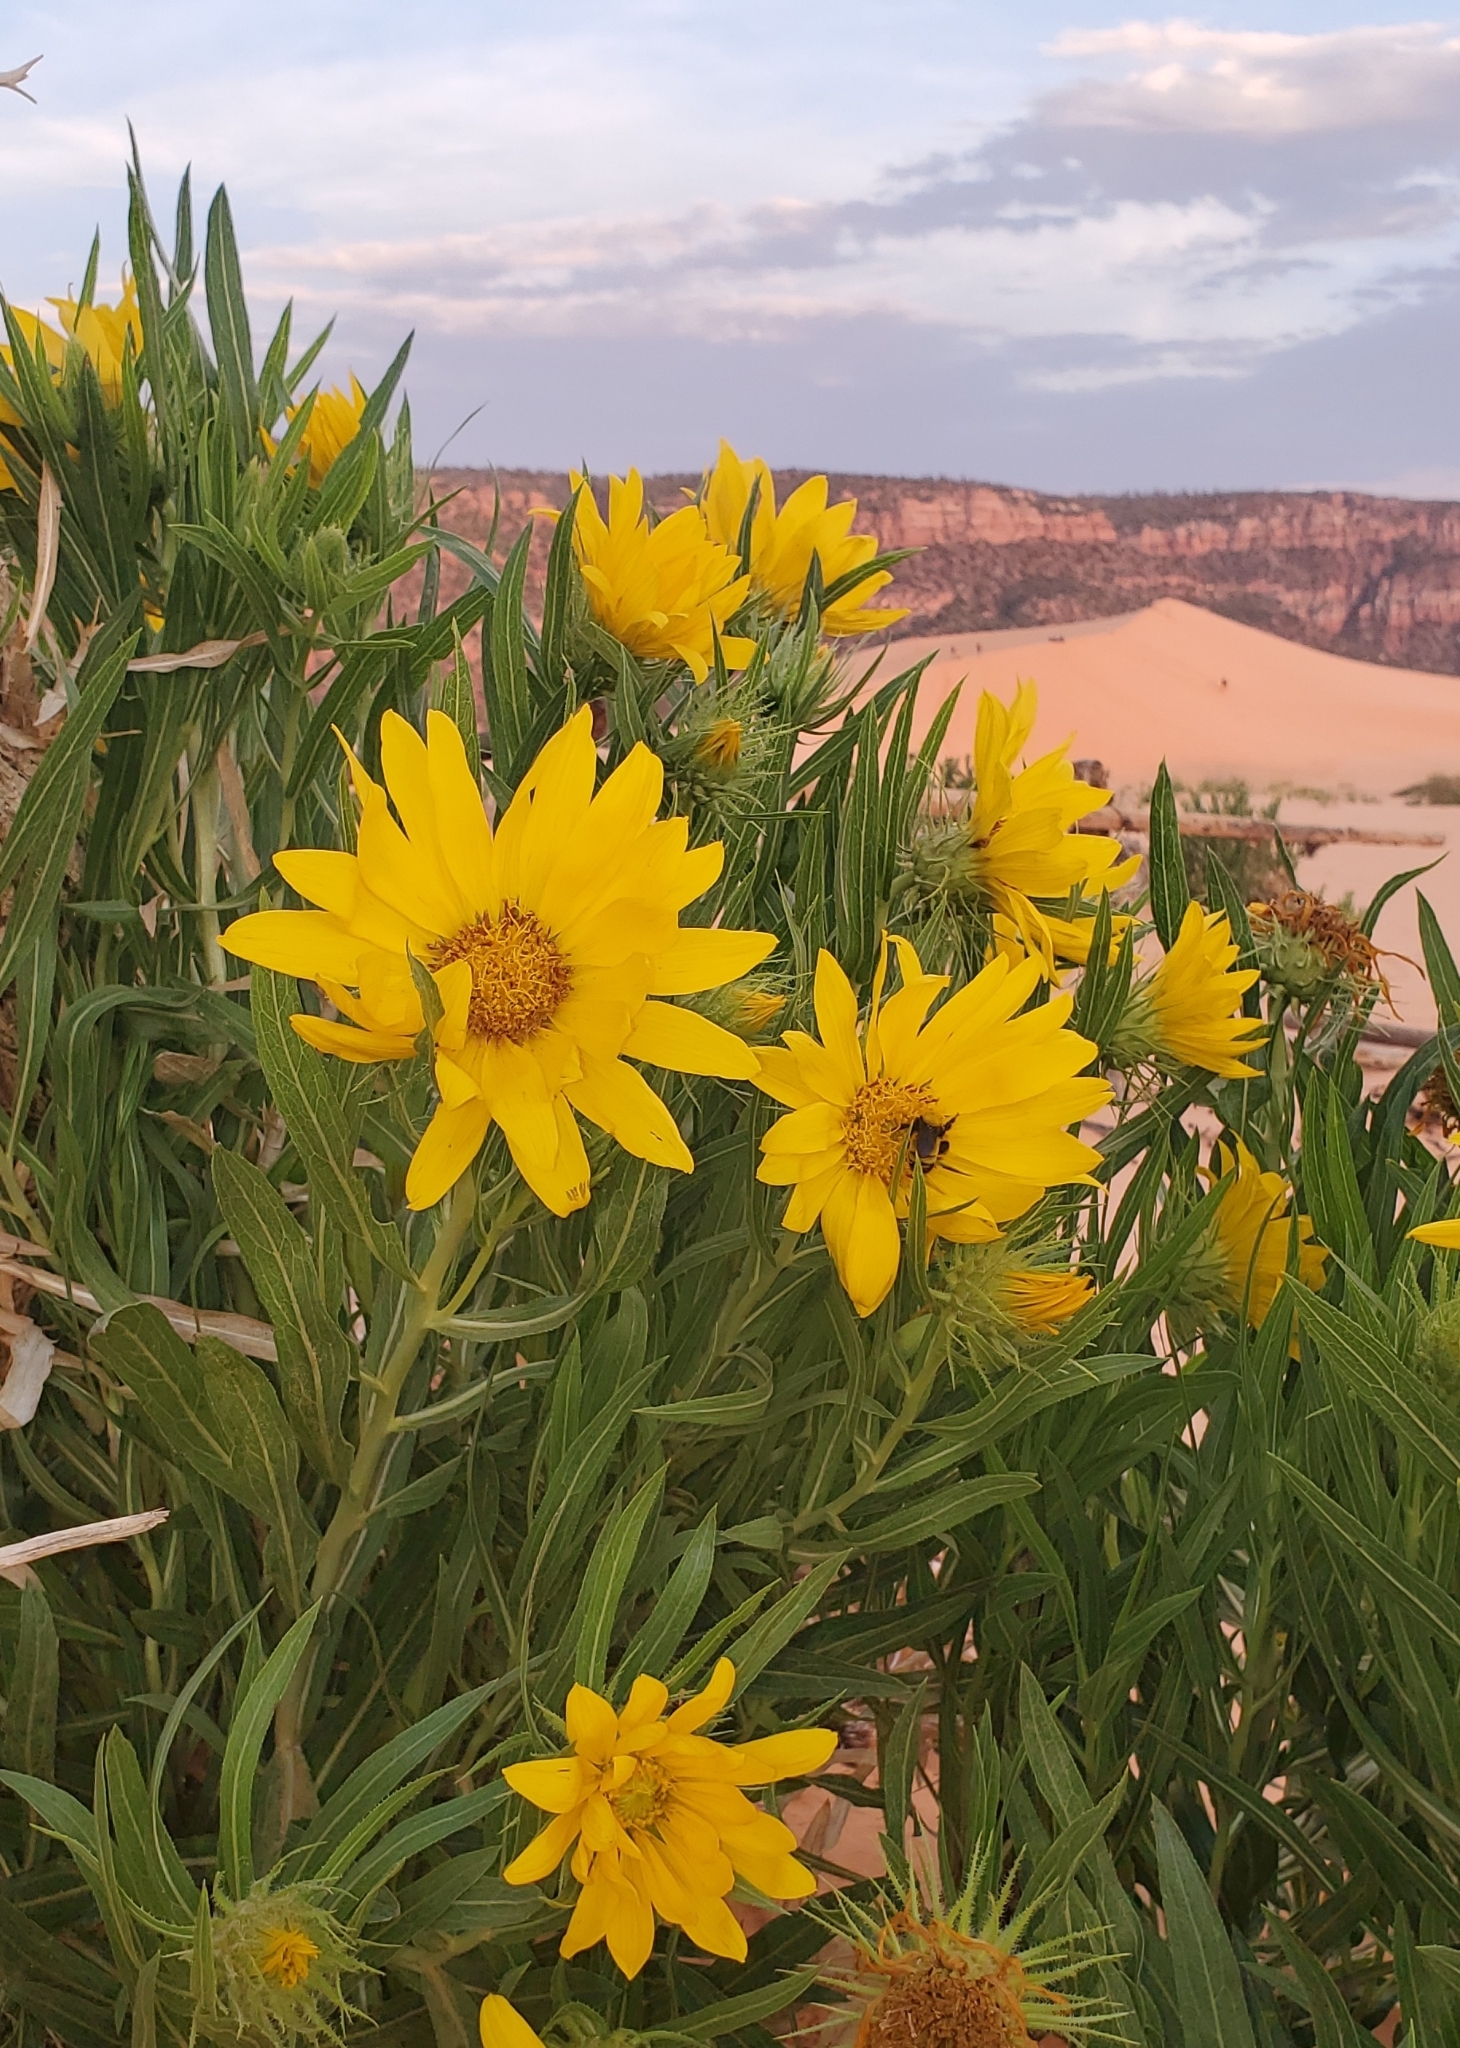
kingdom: Plantae
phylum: Tracheophyta
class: Magnoliopsida
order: Asterales
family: Asteraceae
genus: Scabrethia
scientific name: Scabrethia scabra
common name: Rough mules's-ears
